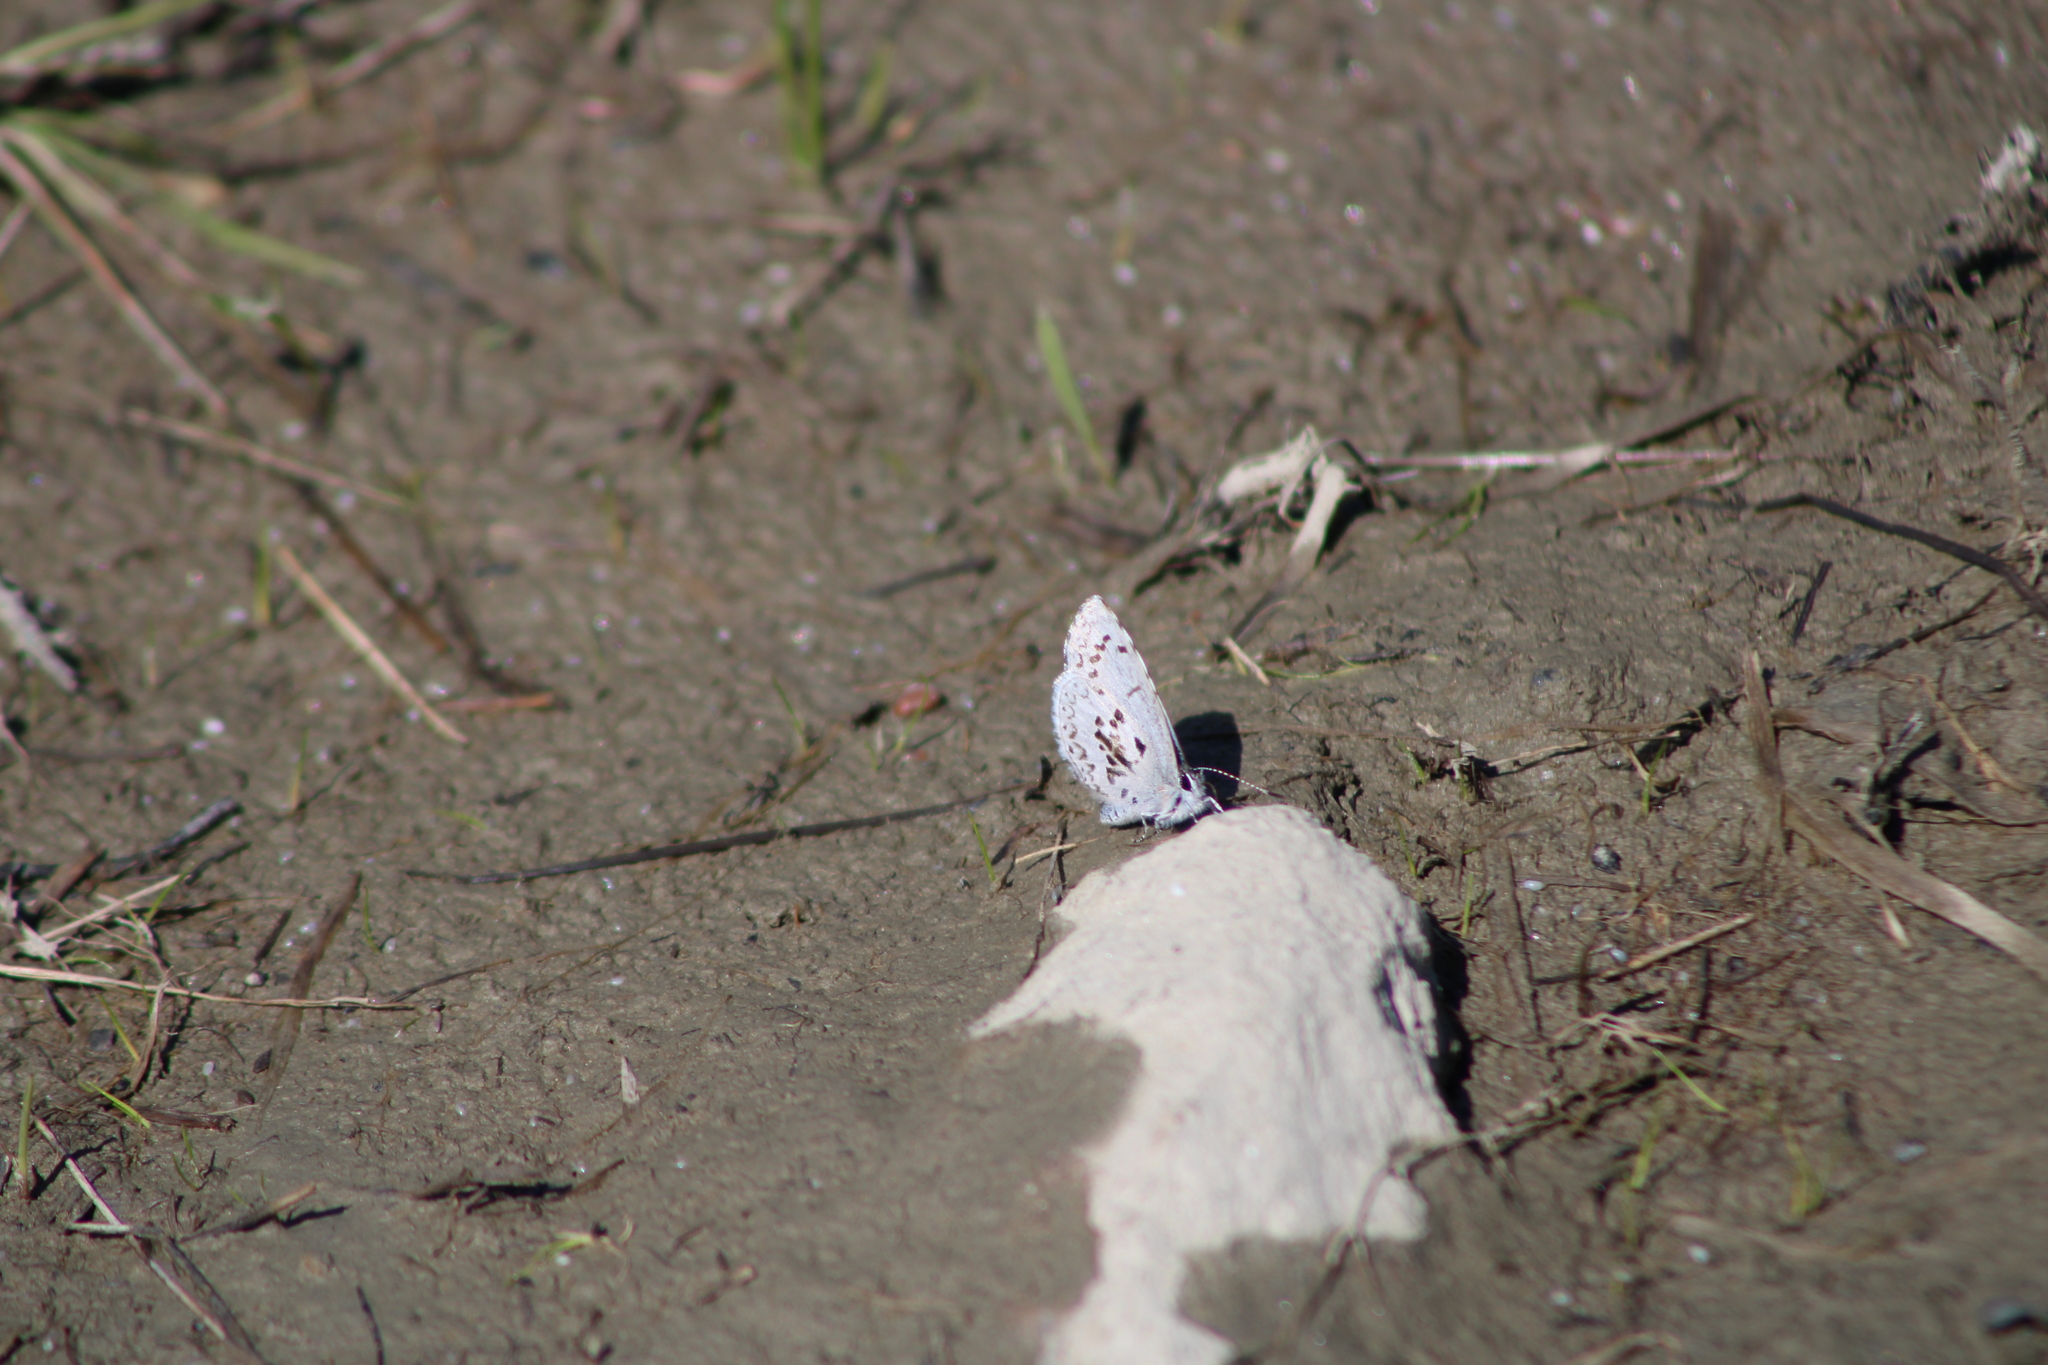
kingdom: Animalia
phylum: Arthropoda
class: Insecta
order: Lepidoptera
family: Lycaenidae
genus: Celastrina
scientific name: Celastrina ladon
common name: Spring azure
